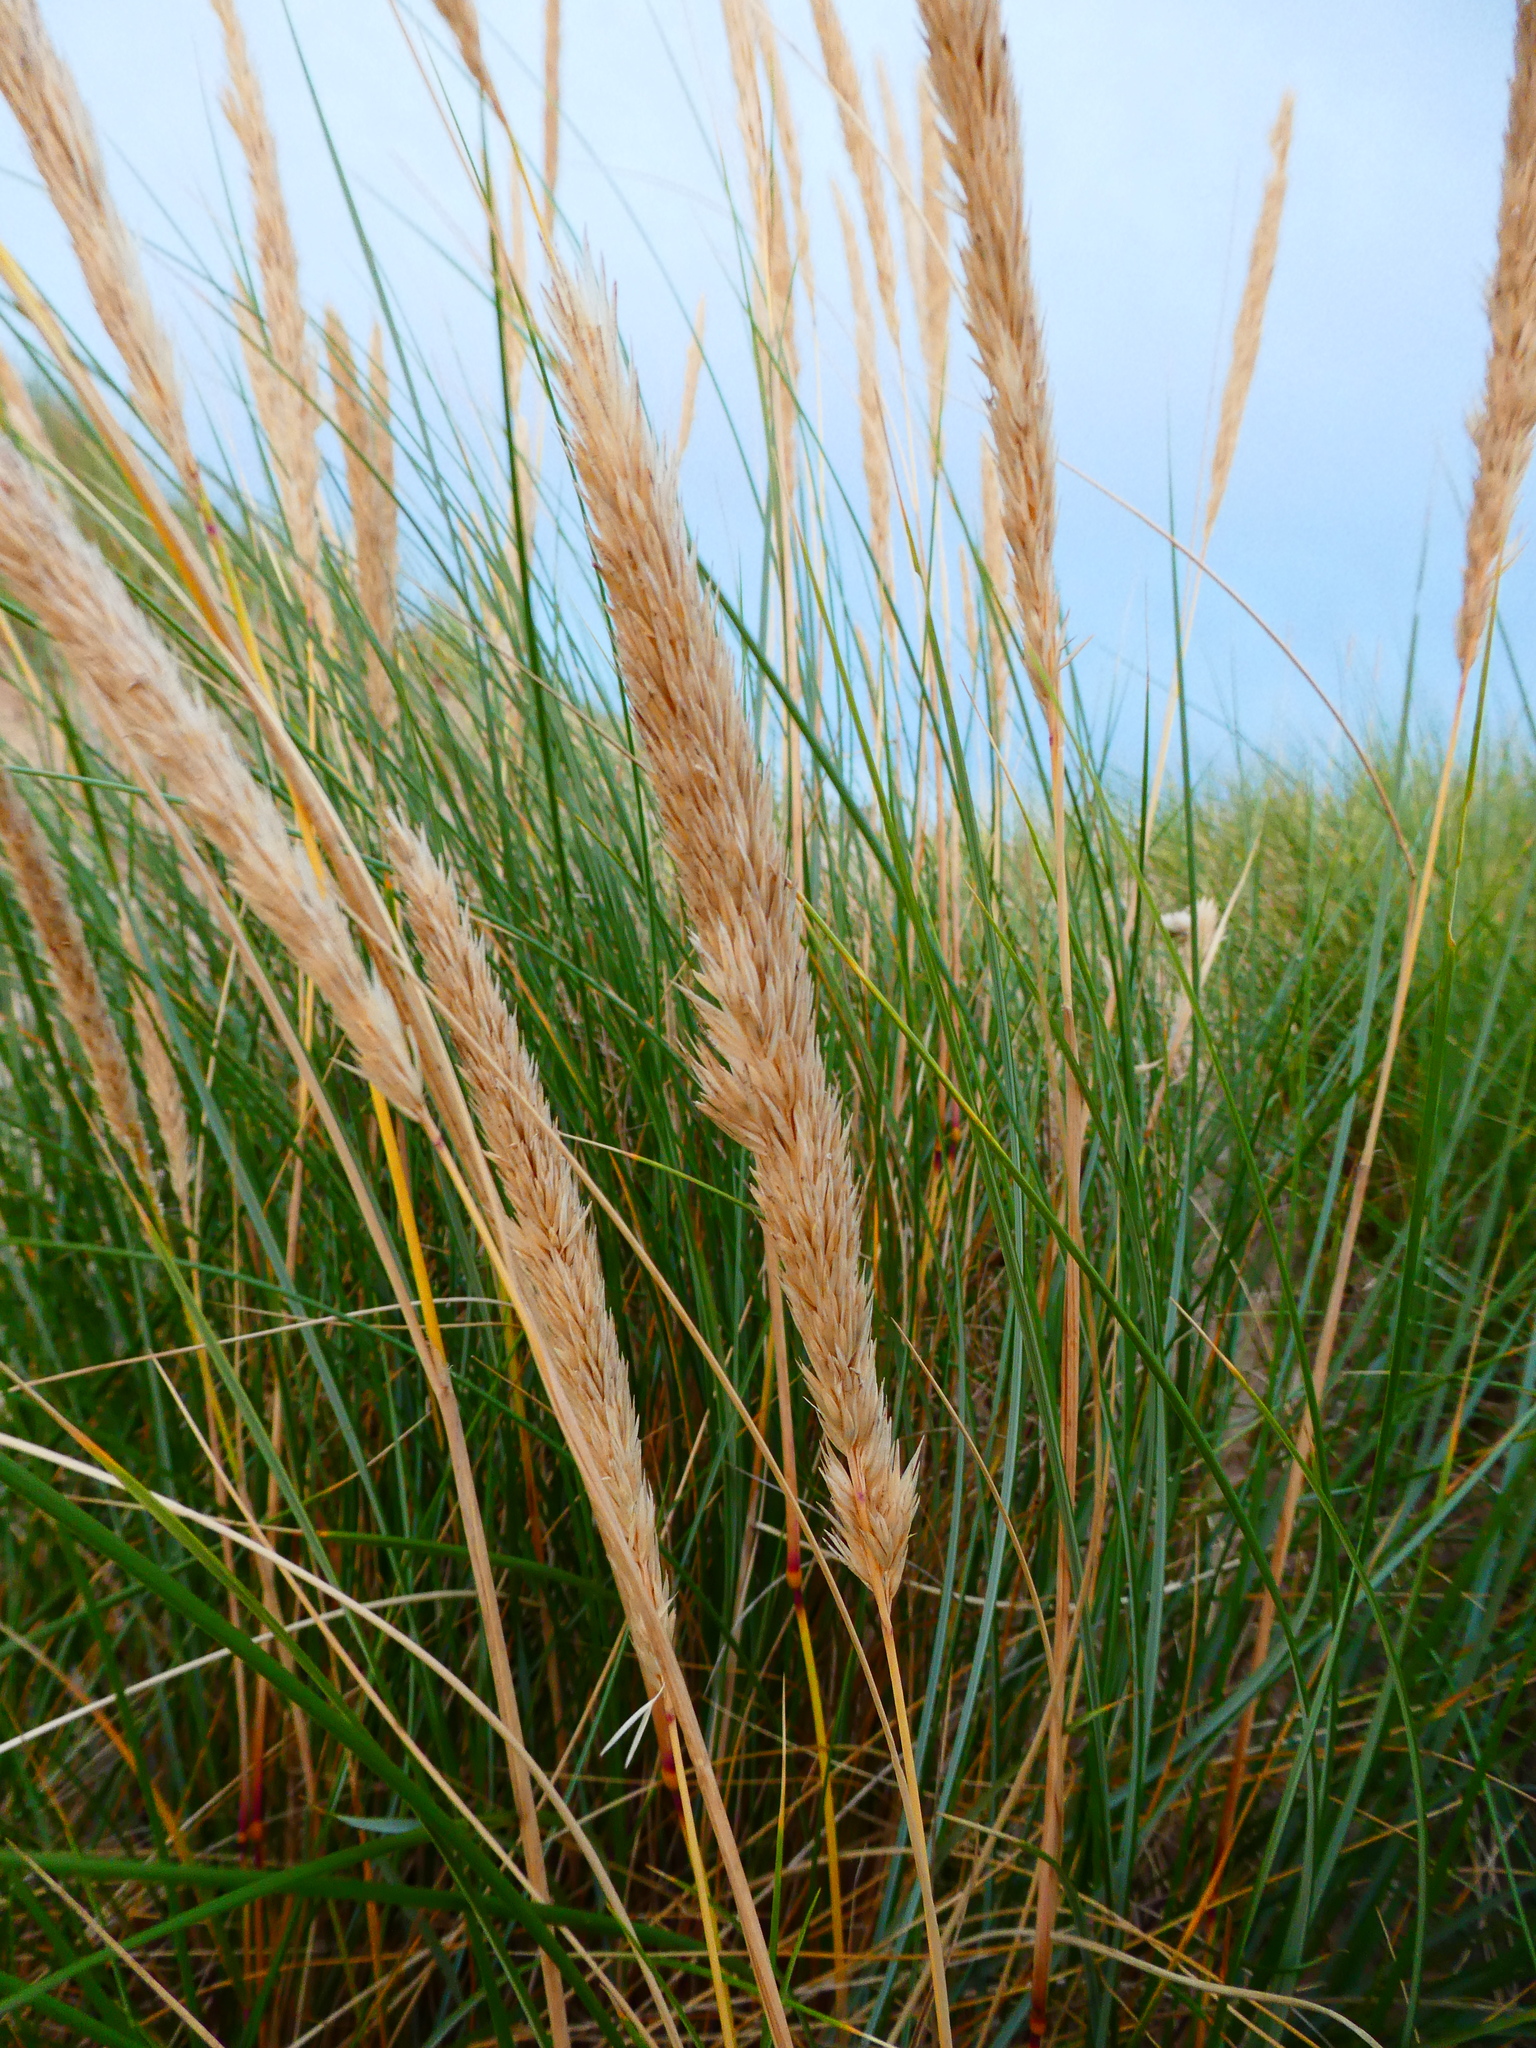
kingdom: Plantae
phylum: Tracheophyta
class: Liliopsida
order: Poales
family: Poaceae
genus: Calamagrostis
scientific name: Calamagrostis arenaria
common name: European beachgrass
